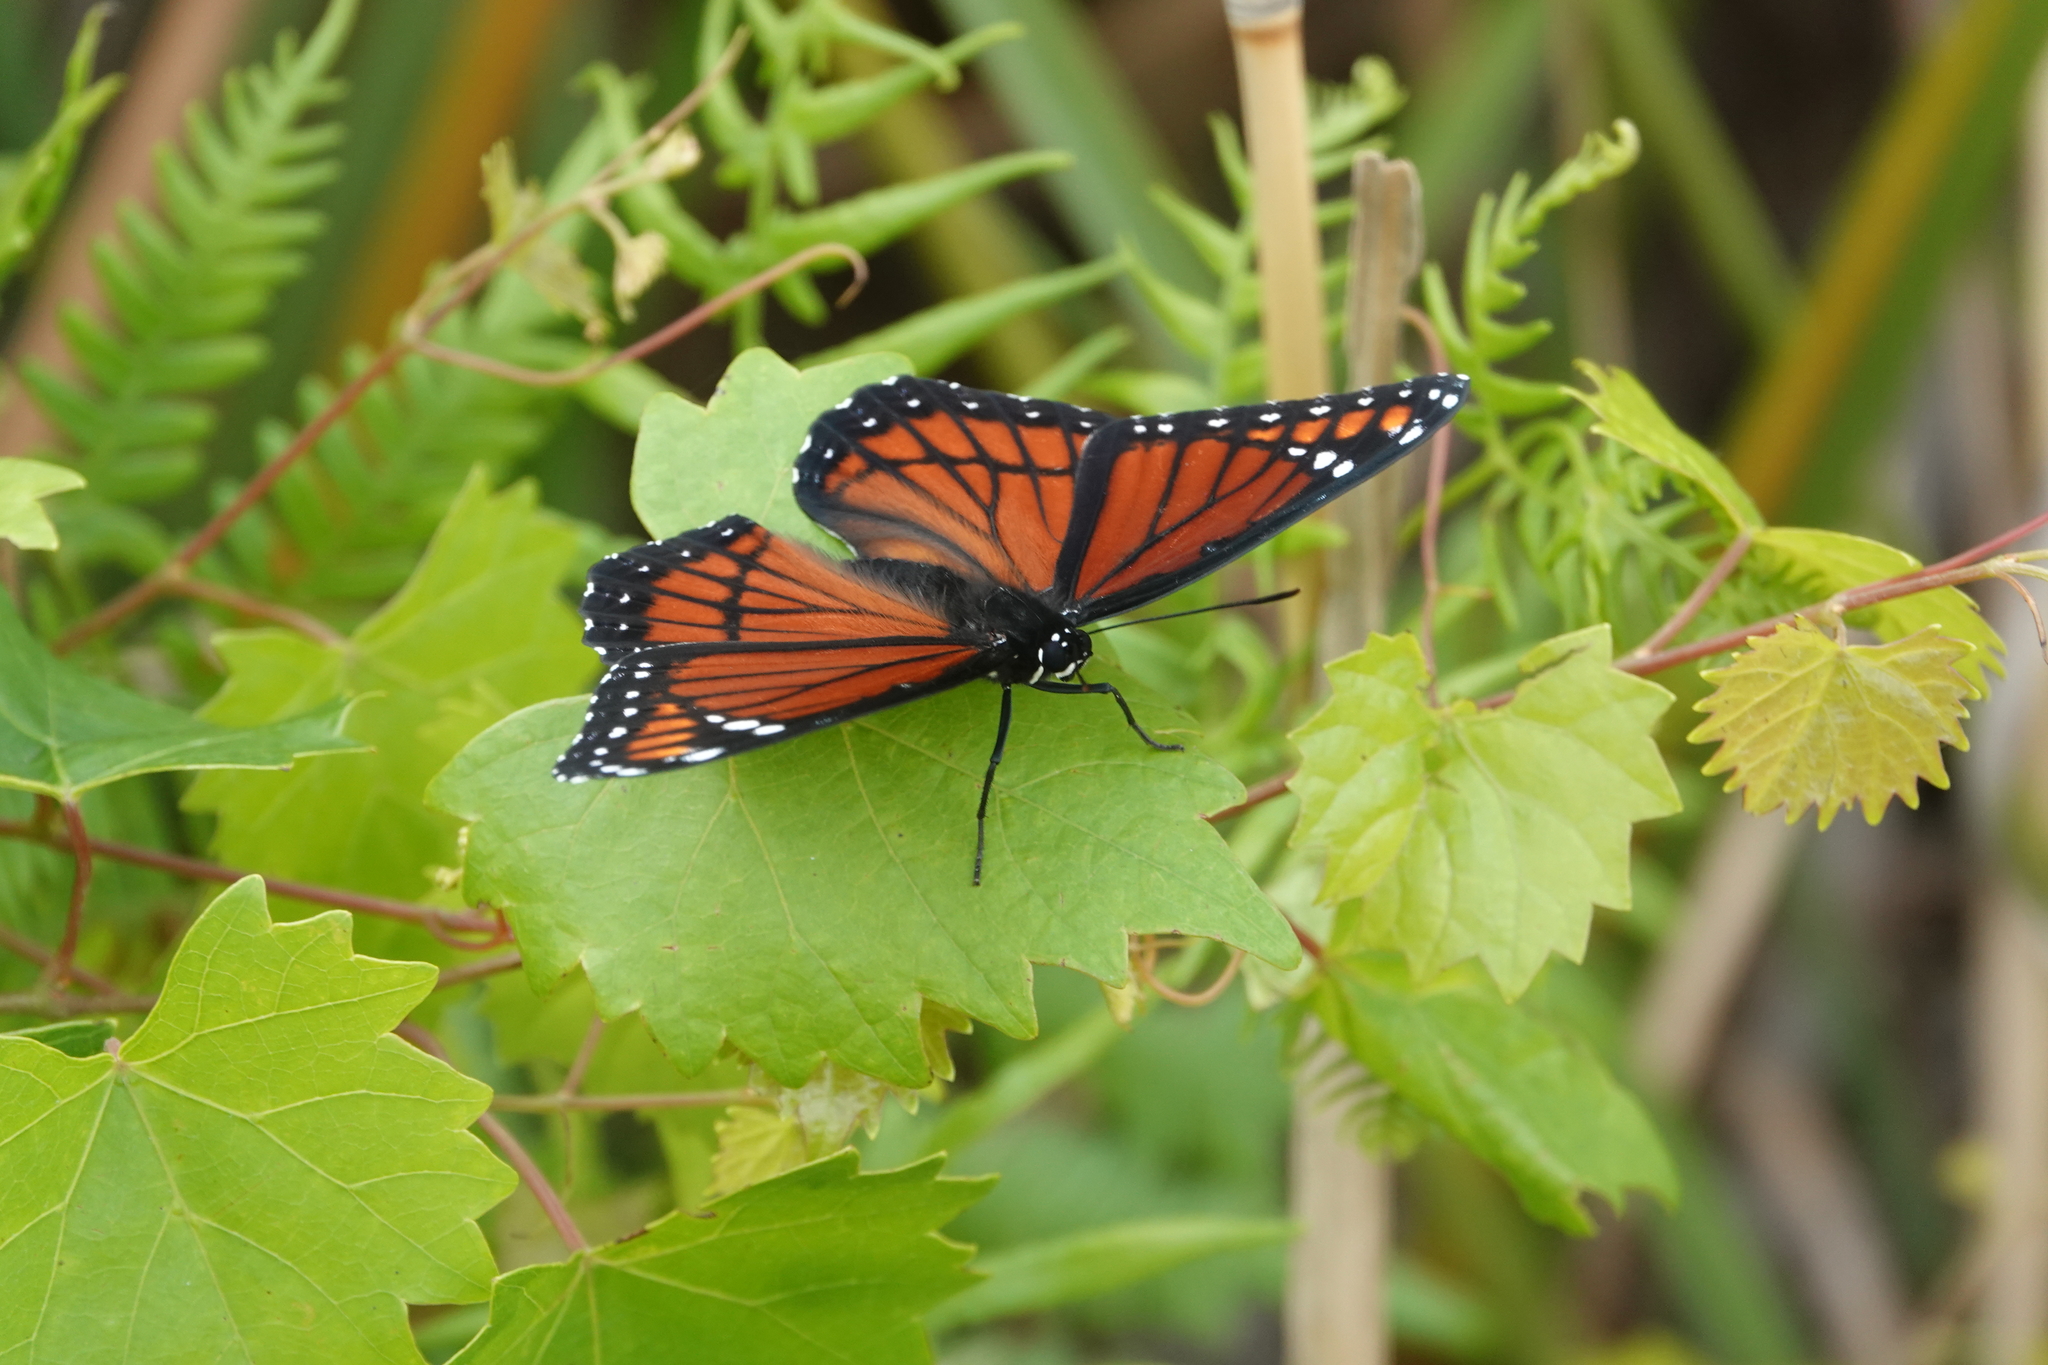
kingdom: Animalia
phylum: Arthropoda
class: Insecta
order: Lepidoptera
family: Nymphalidae
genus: Limenitis
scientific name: Limenitis archippus
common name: Viceroy
